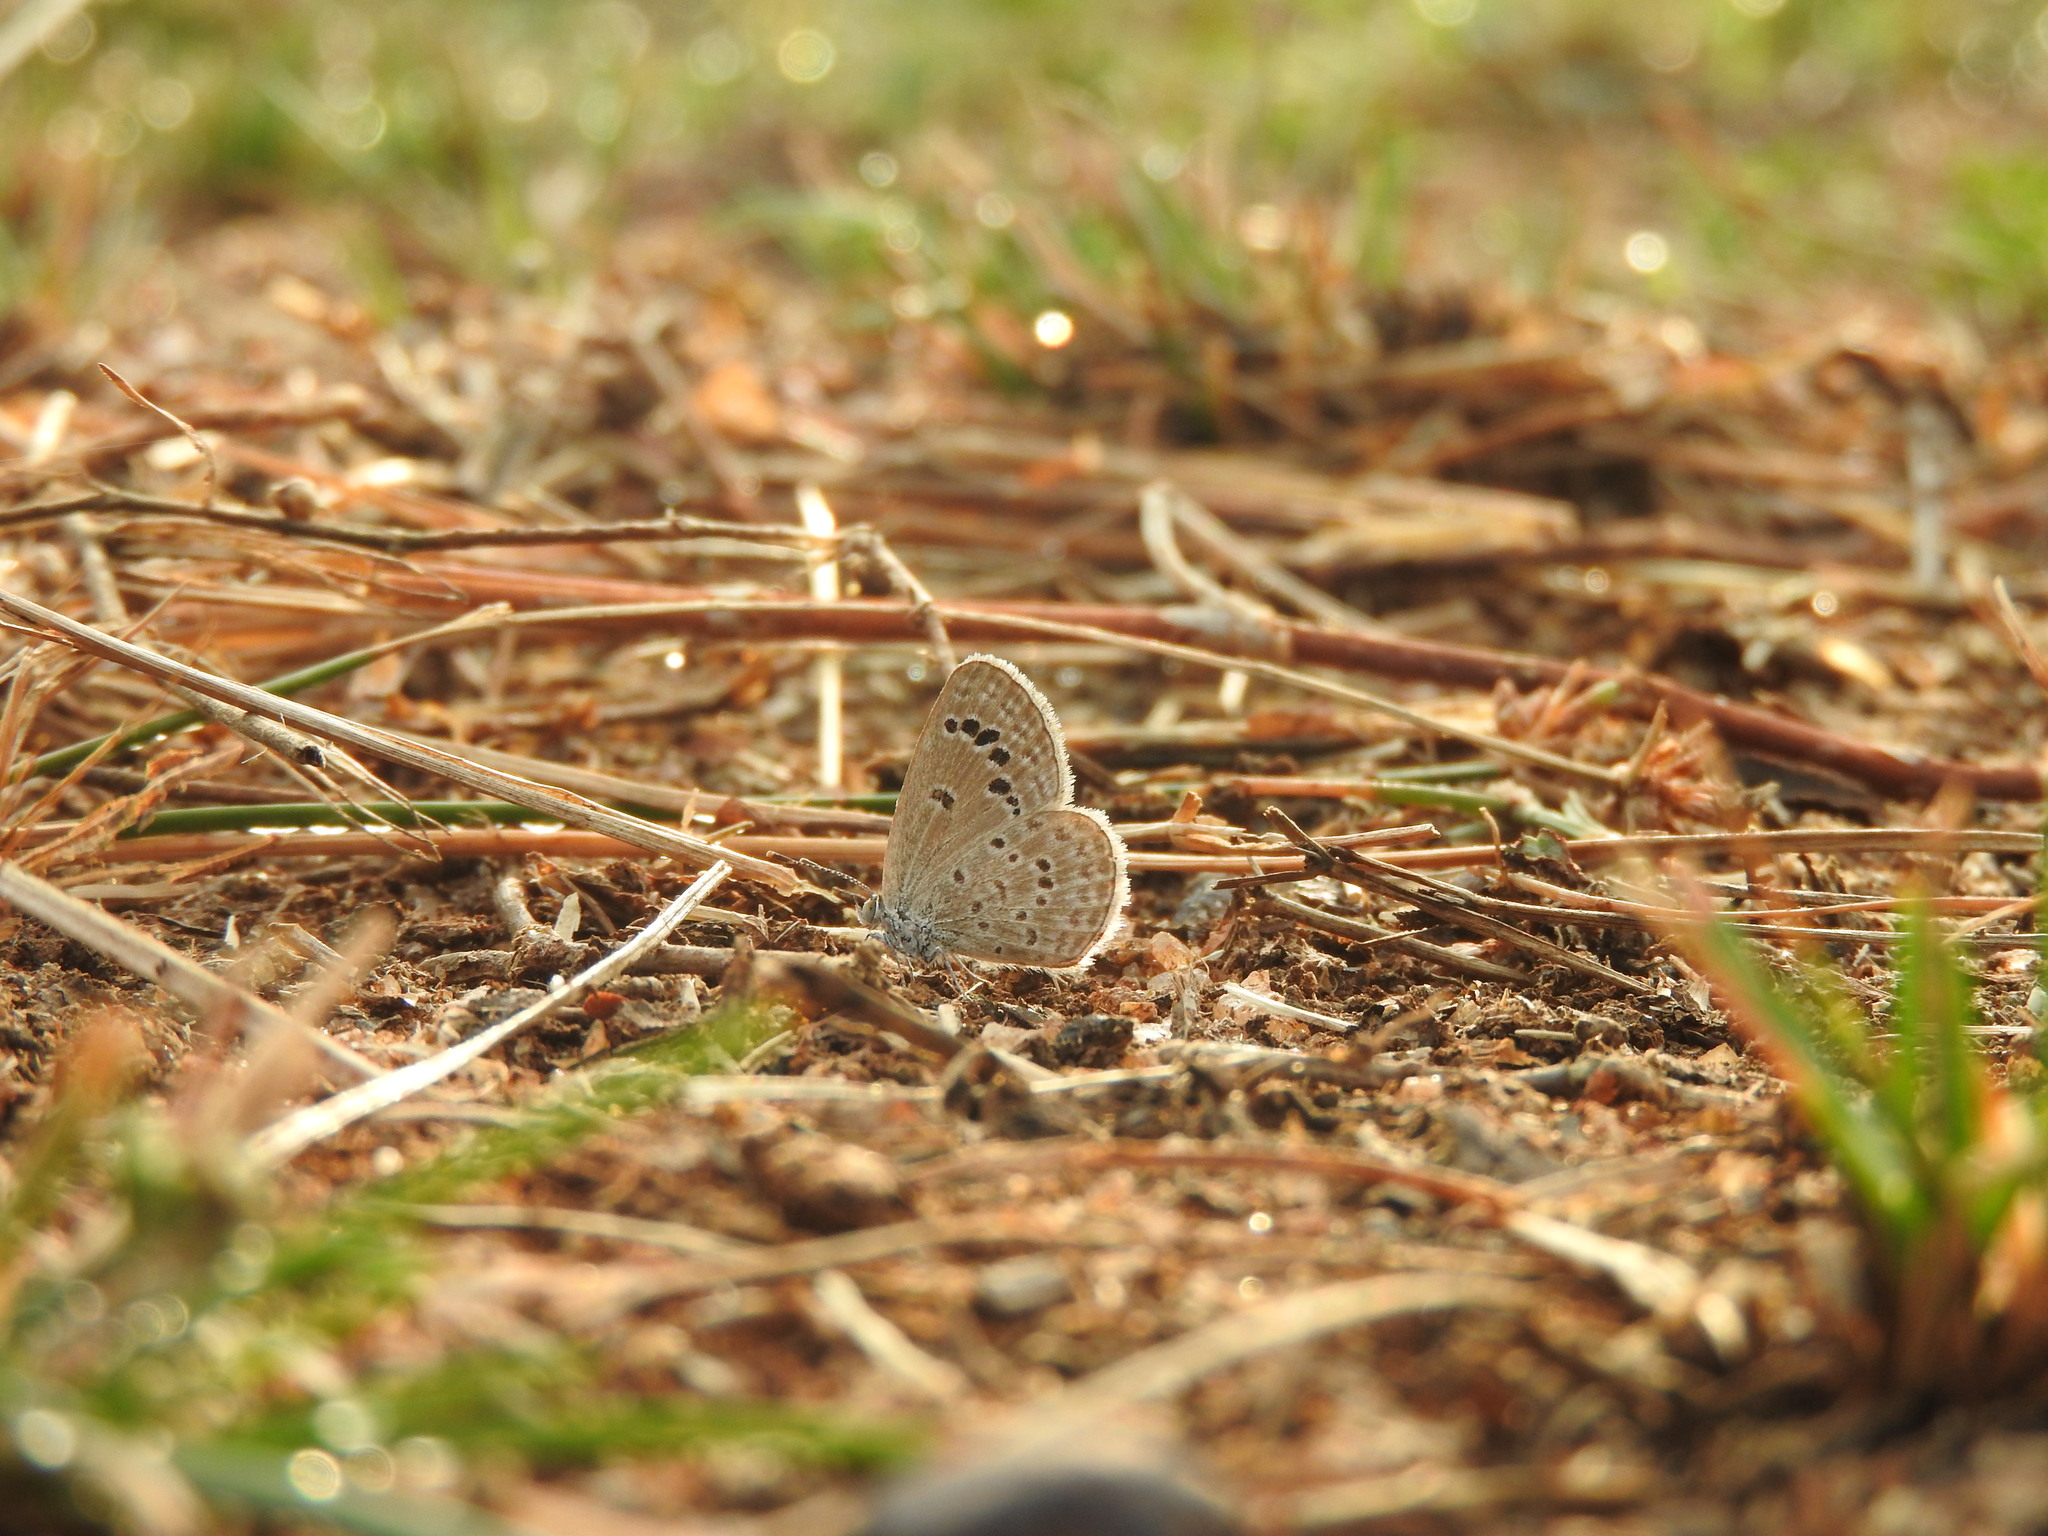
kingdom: Animalia
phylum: Arthropoda
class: Insecta
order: Lepidoptera
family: Lycaenidae
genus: Zizina
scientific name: Zizina otis
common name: Lesser grass blue
